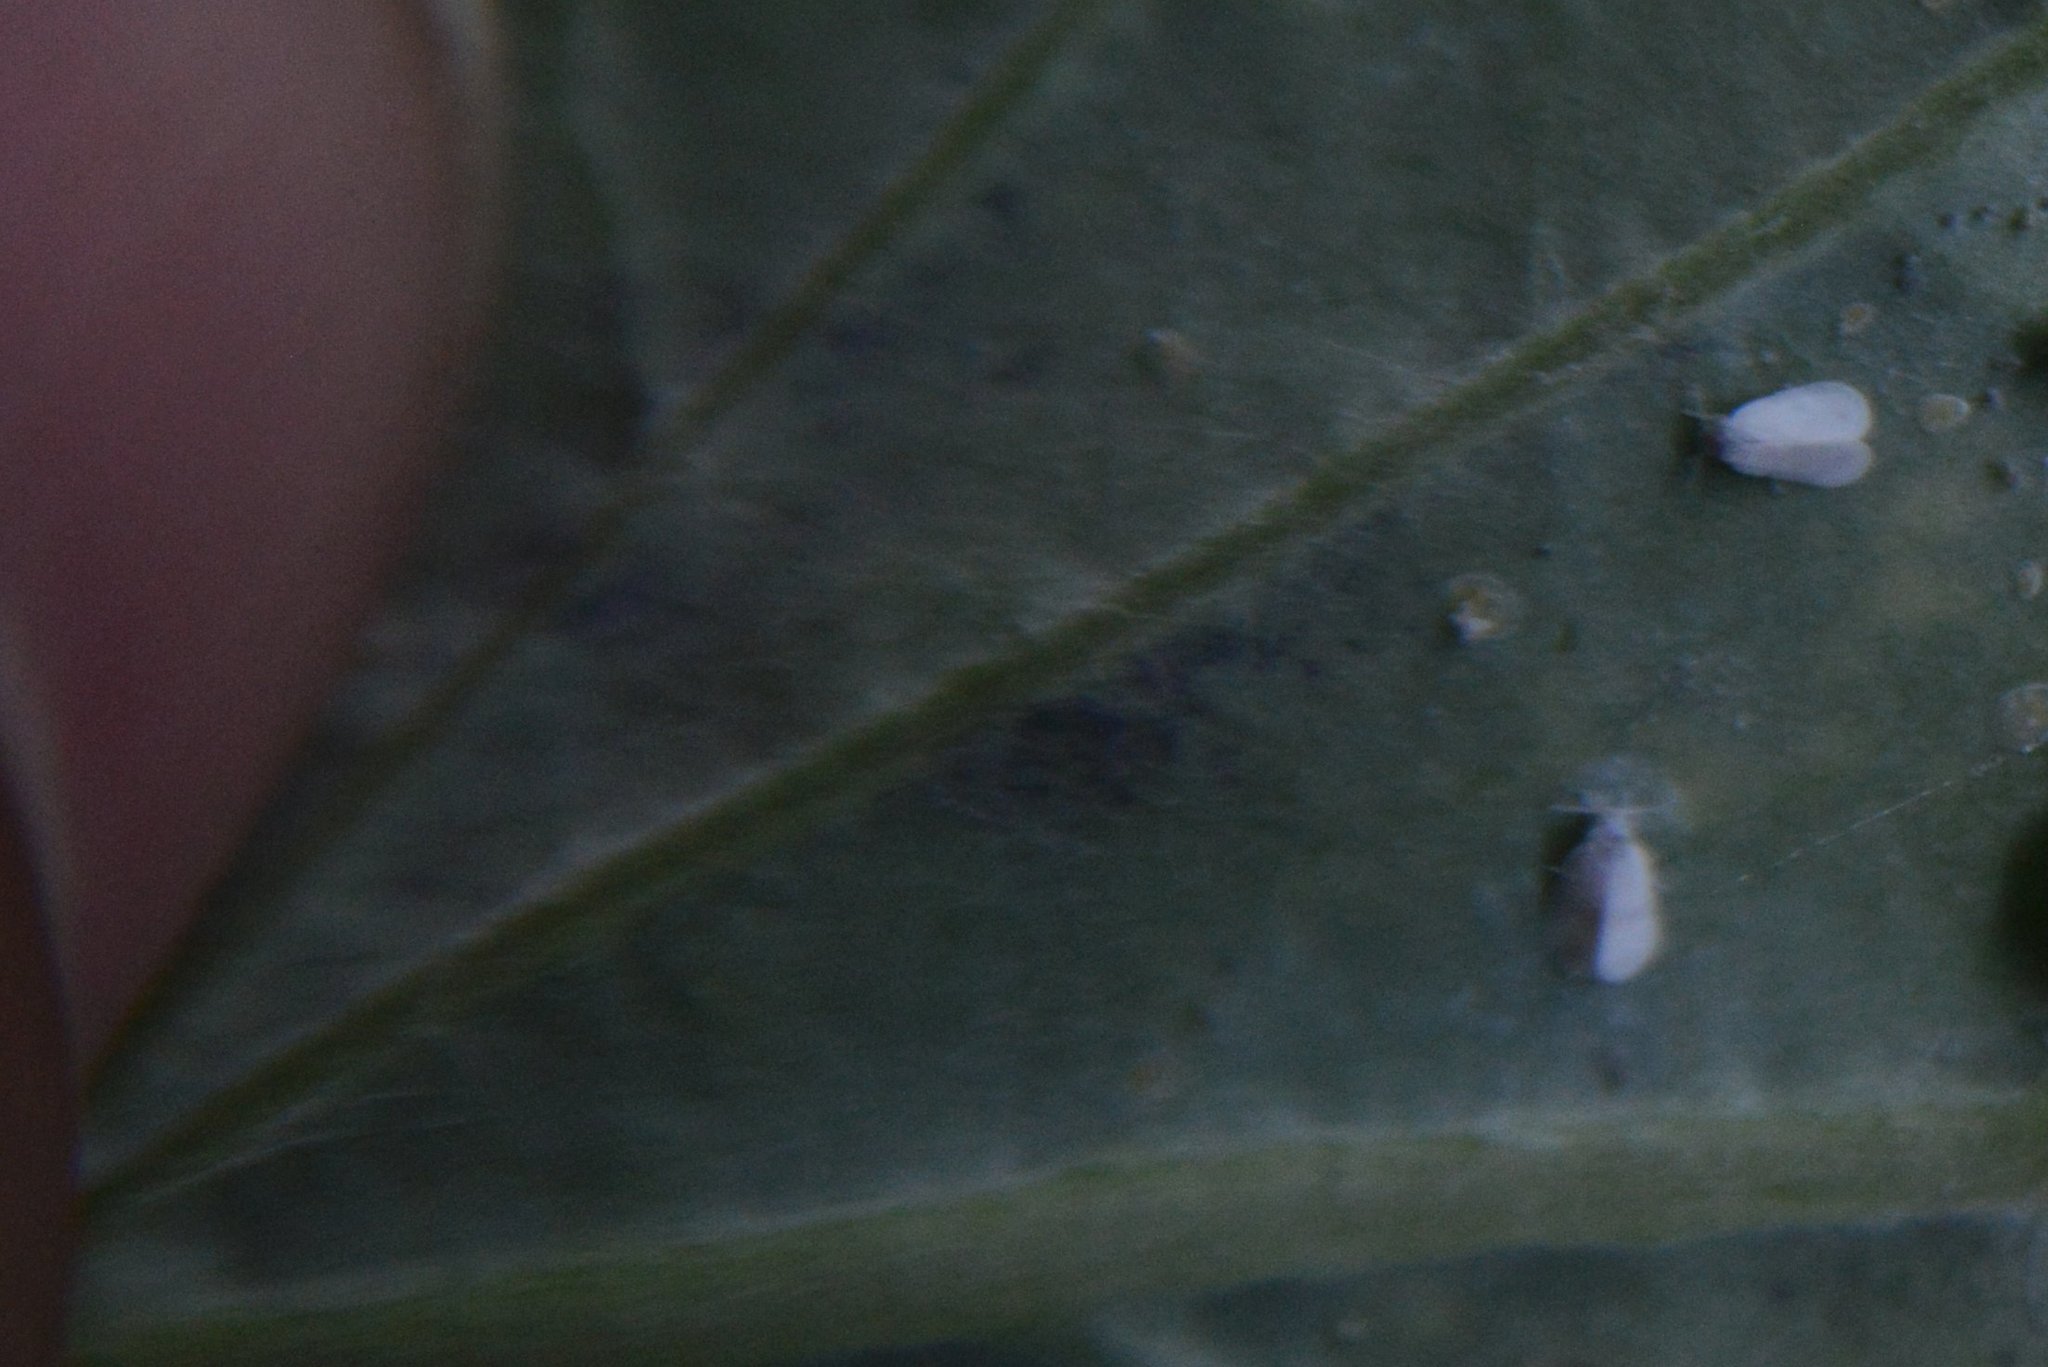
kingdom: Animalia
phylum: Arthropoda
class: Insecta
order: Hemiptera
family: Aleyrodidae
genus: Aleyrodes
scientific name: Aleyrodes proletella
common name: Cabbage whitefly
